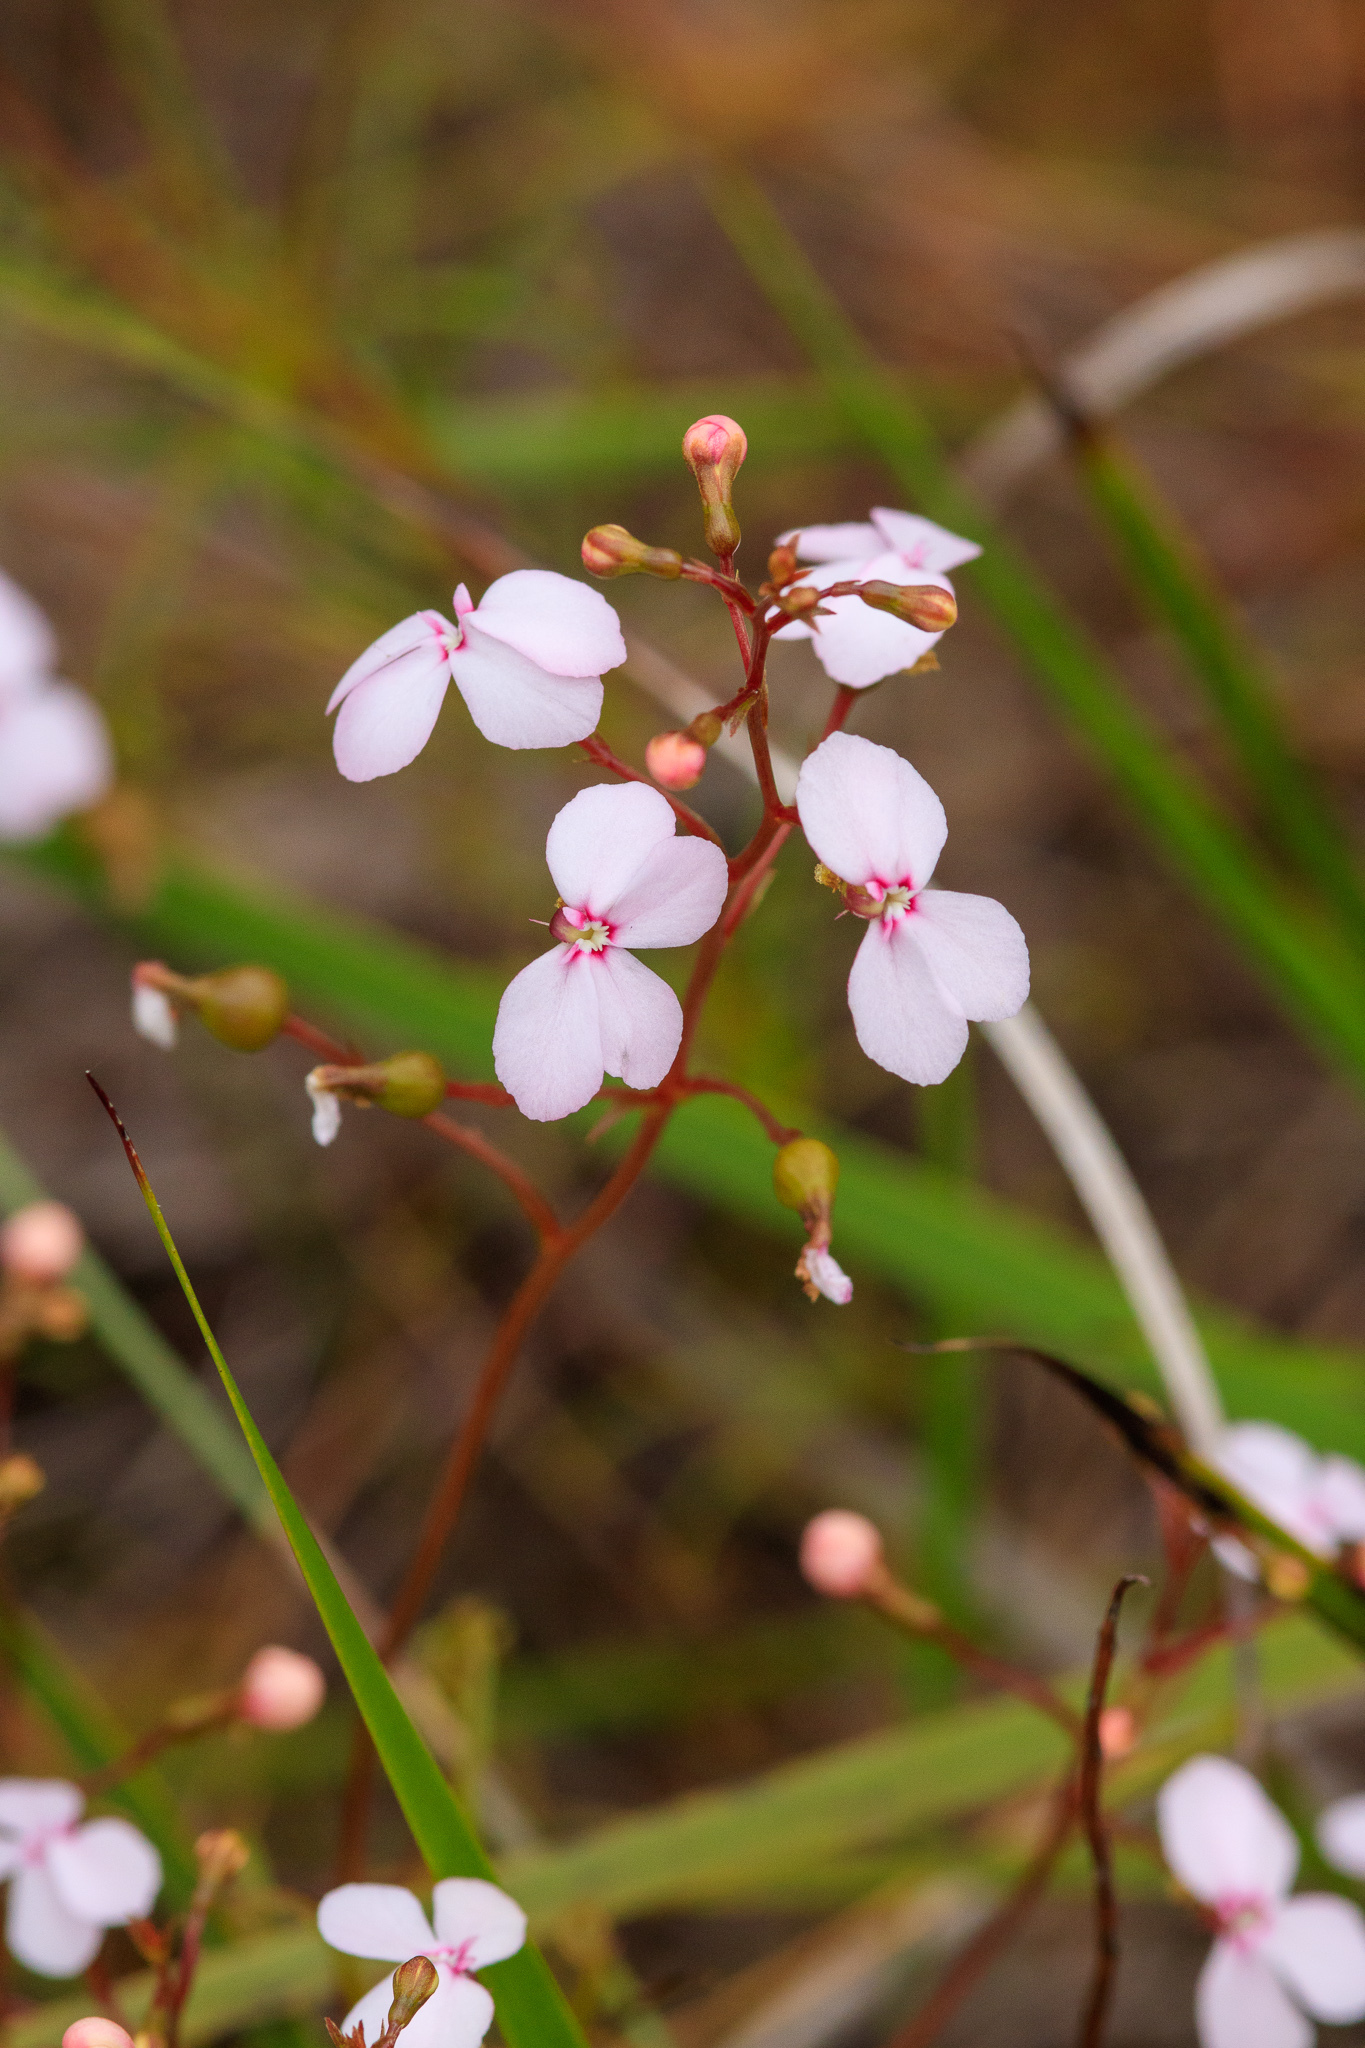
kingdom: Plantae
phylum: Tracheophyta
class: Magnoliopsida
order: Asterales
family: Stylidiaceae
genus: Stylidium
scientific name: Stylidium scandens
